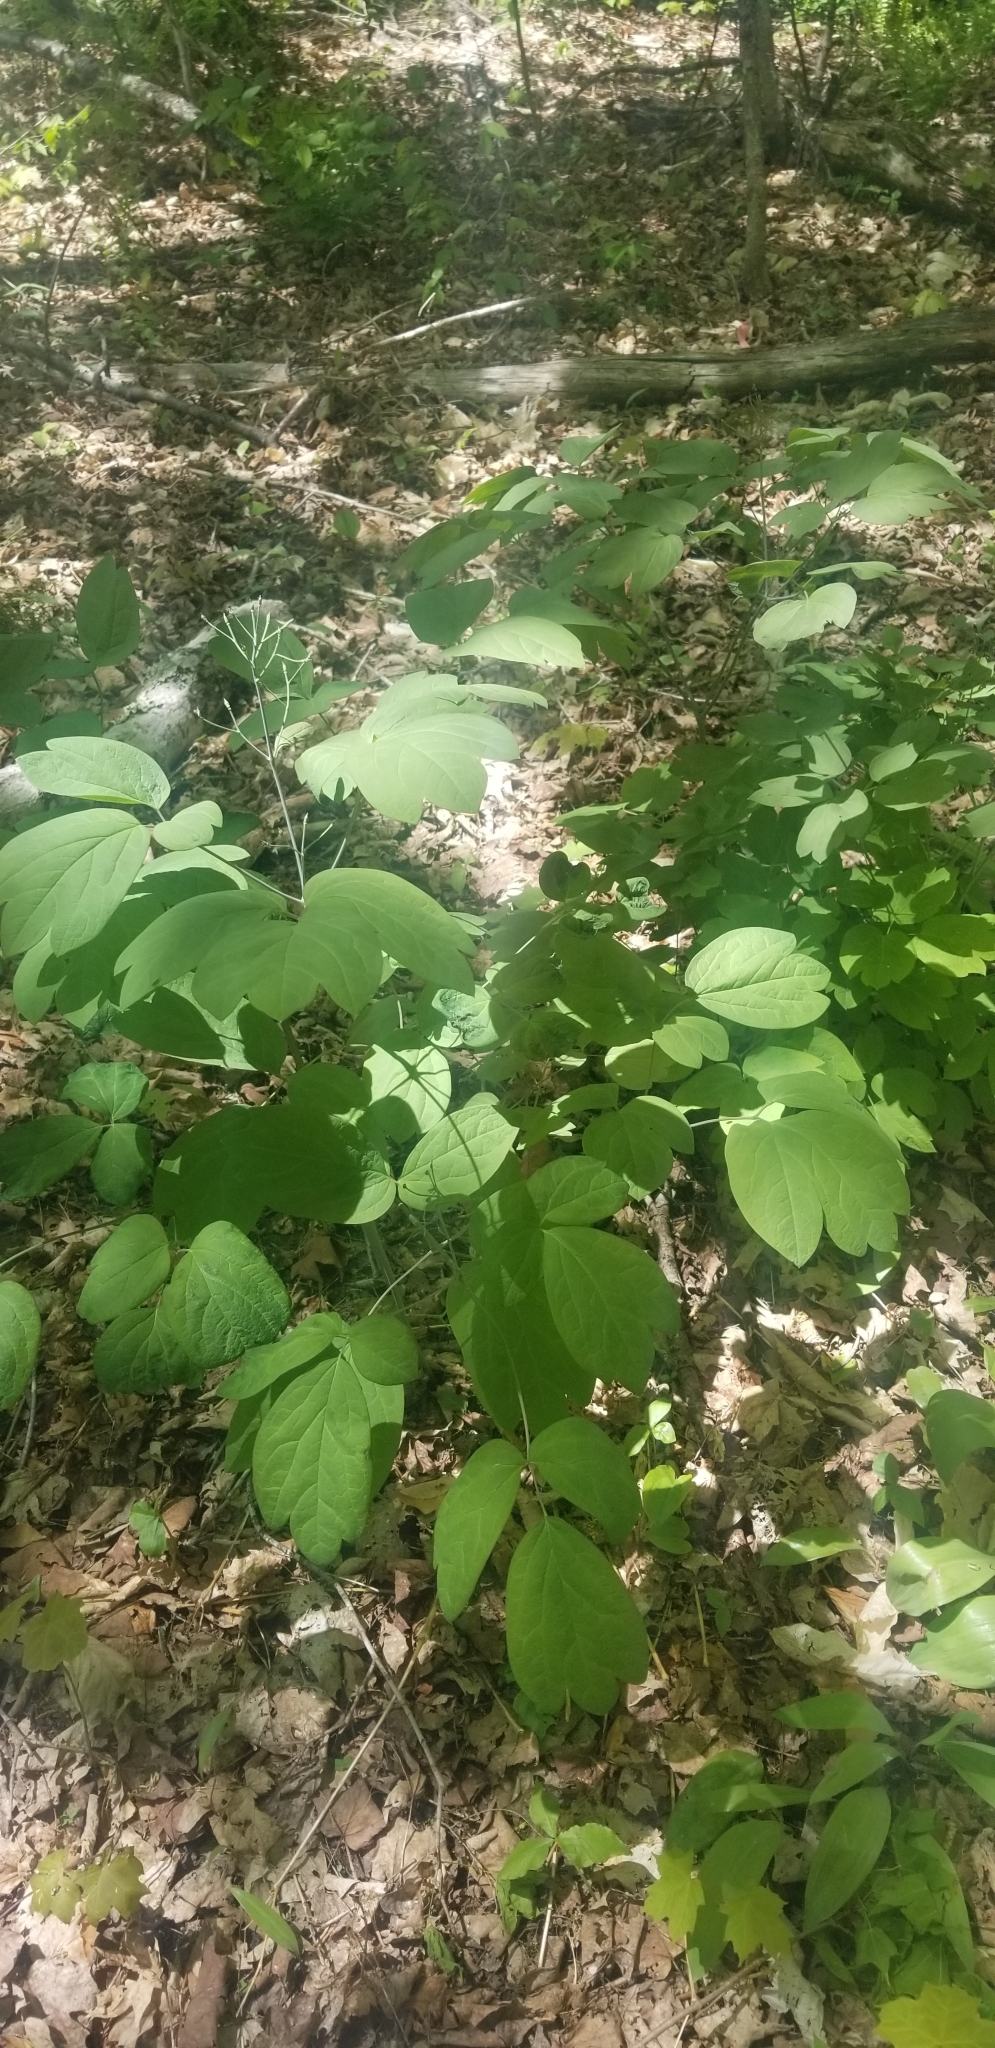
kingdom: Plantae
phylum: Tracheophyta
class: Magnoliopsida
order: Ranunculales
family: Papaveraceae
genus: Dicentra
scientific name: Dicentra canadensis
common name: Squirrel-corn
